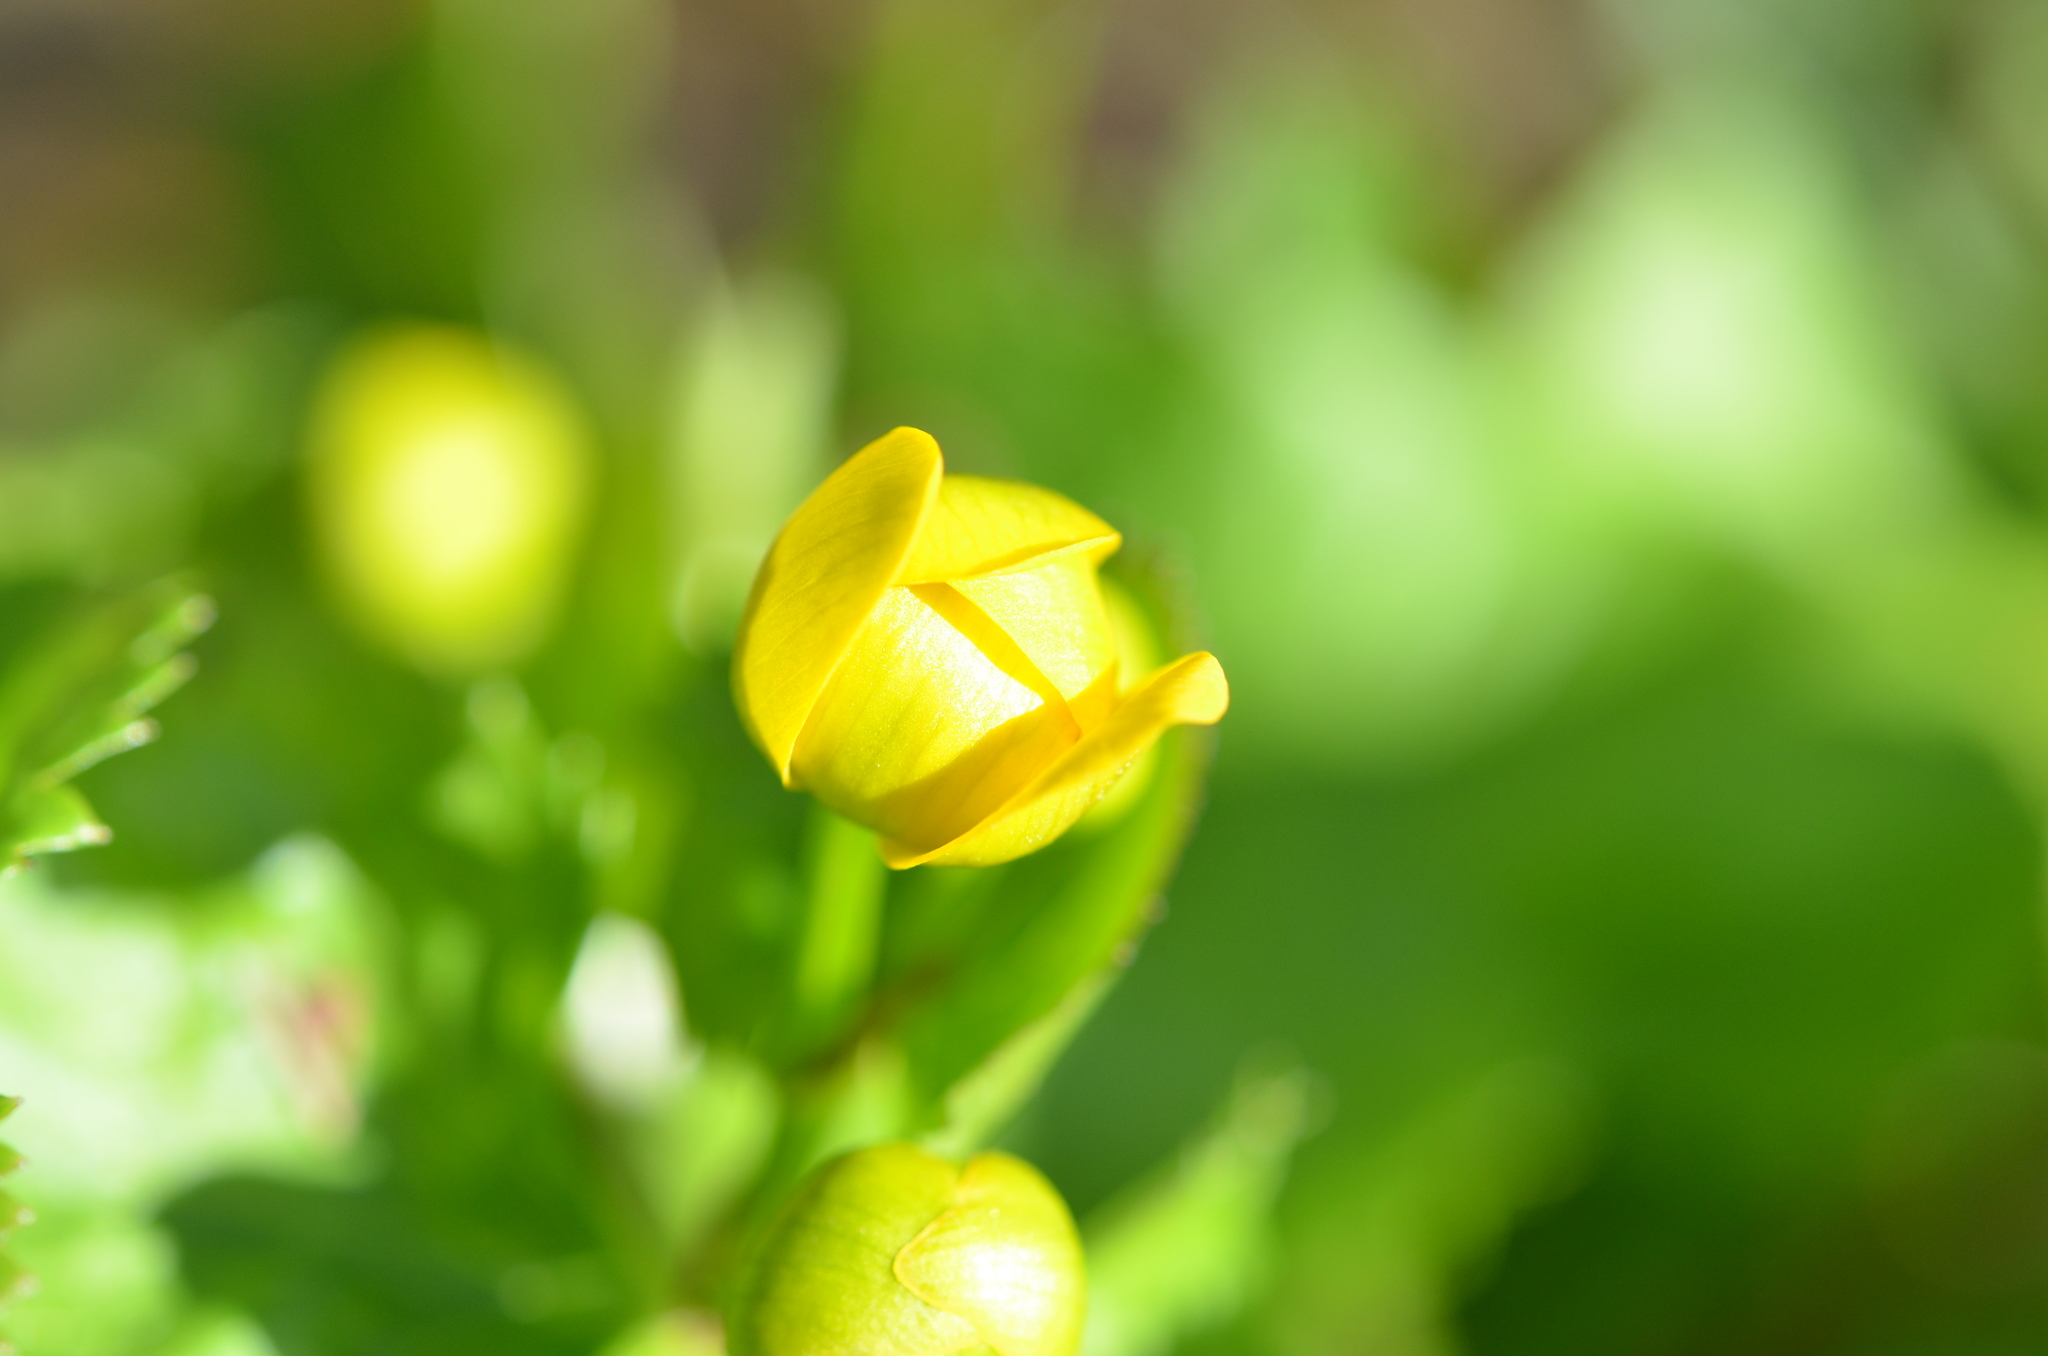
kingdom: Plantae
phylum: Tracheophyta
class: Magnoliopsida
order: Ranunculales
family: Ranunculaceae
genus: Caltha
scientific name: Caltha palustris
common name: Marsh marigold
